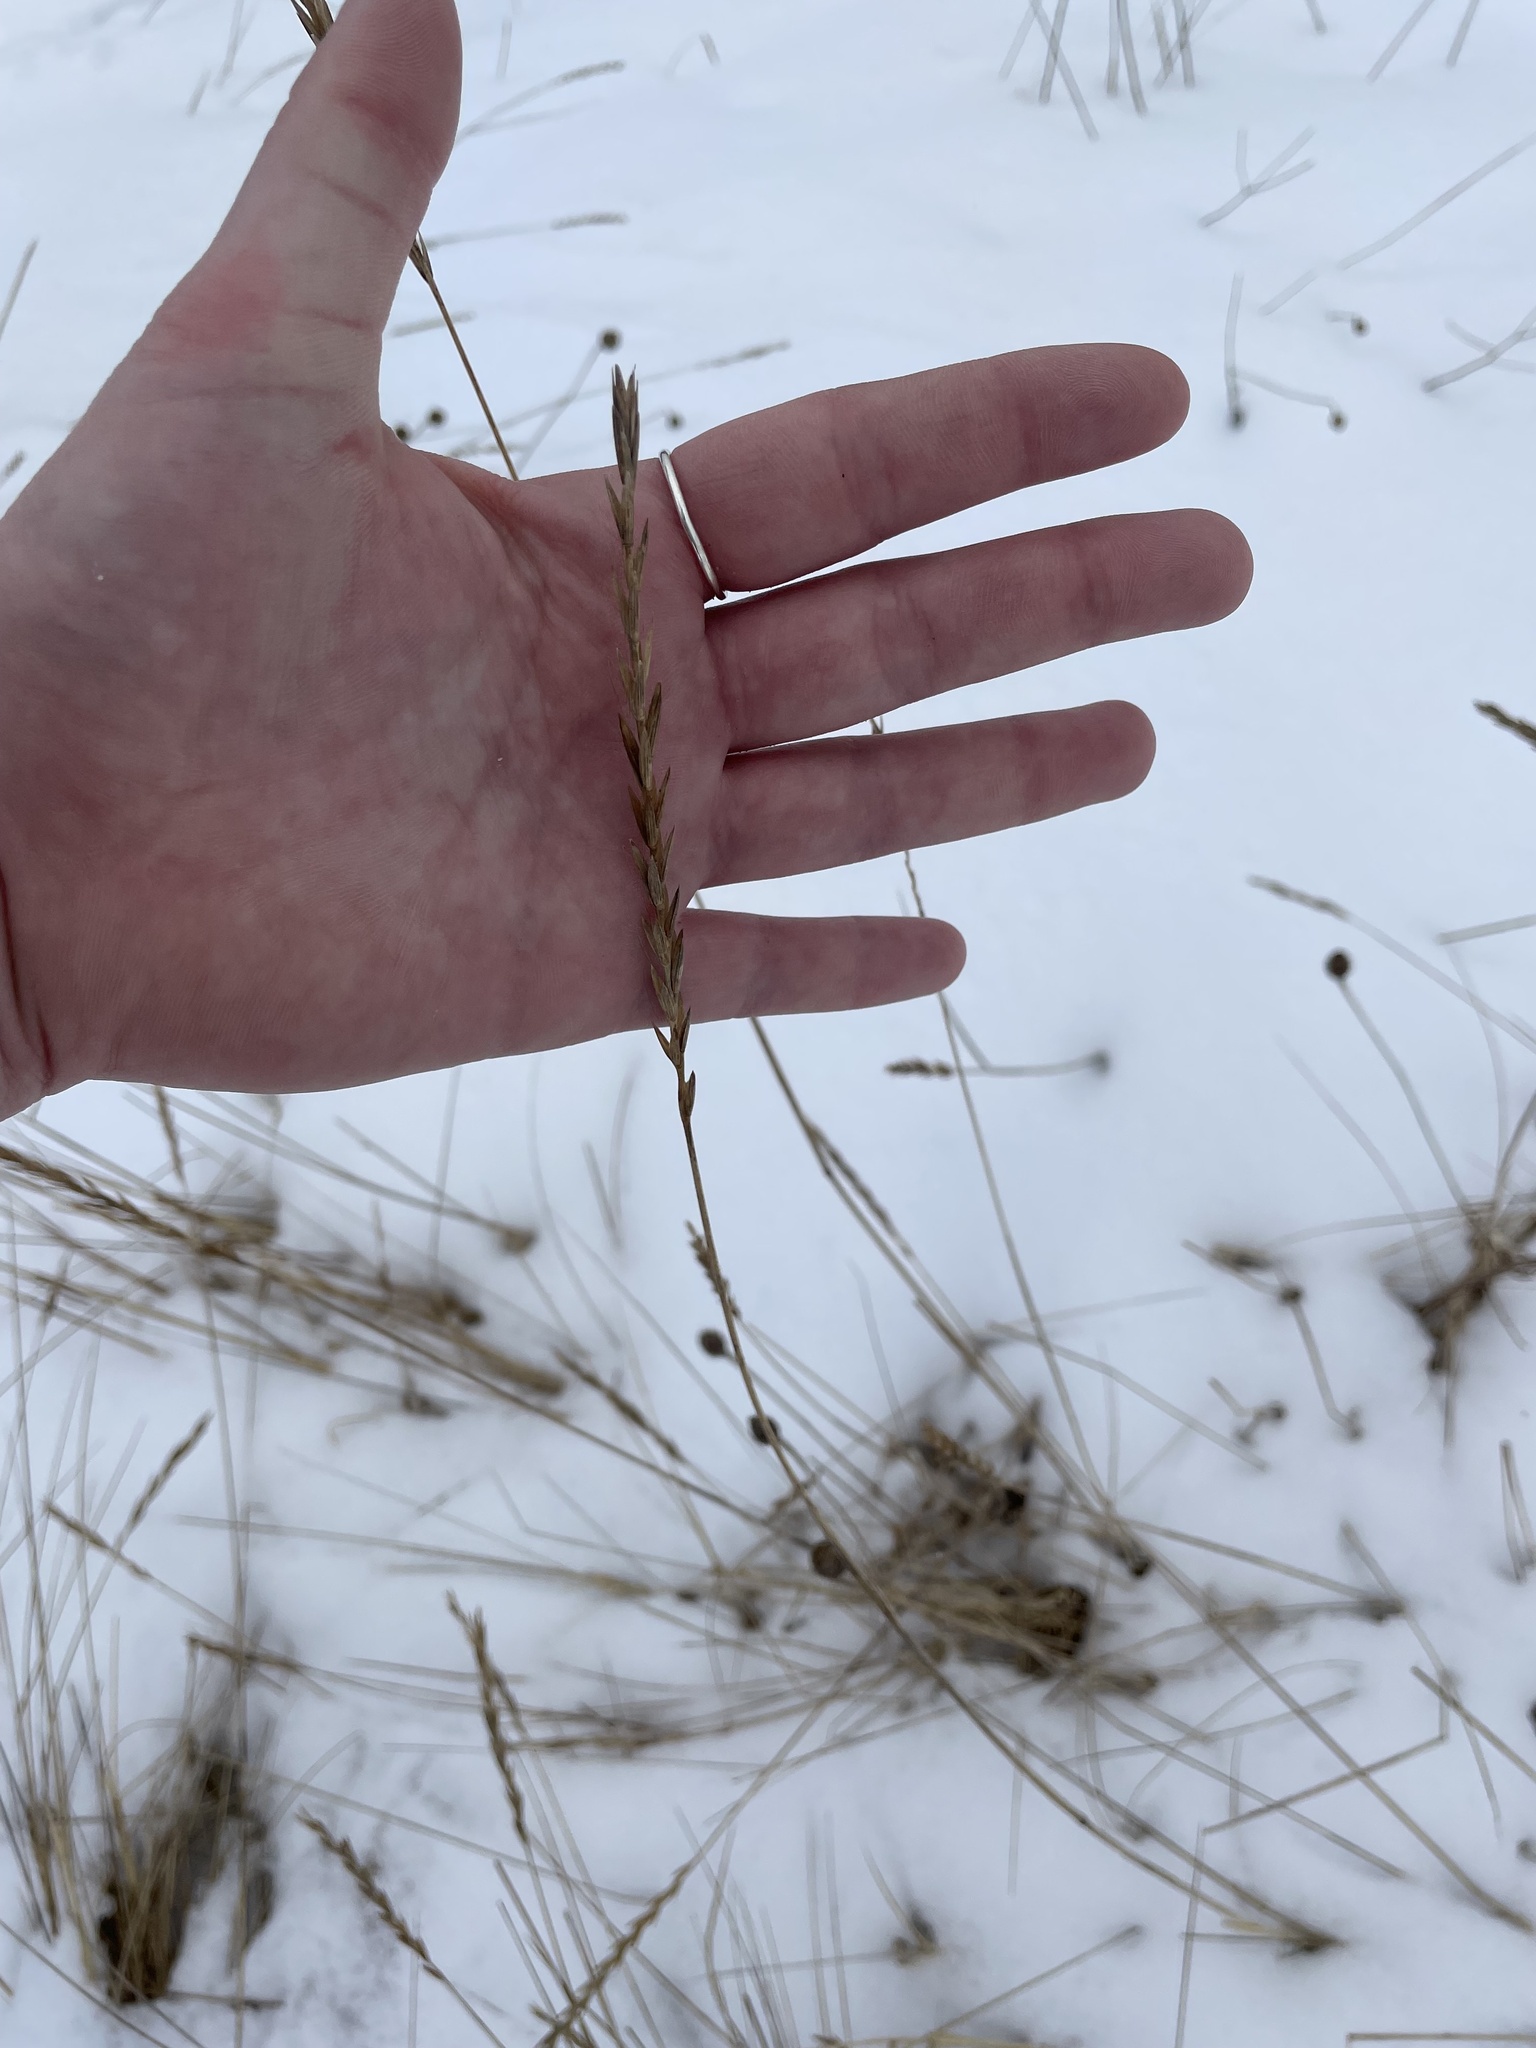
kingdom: Plantae
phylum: Tracheophyta
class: Liliopsida
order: Poales
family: Poaceae
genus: Elymus
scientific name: Elymus repens
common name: Quackgrass
